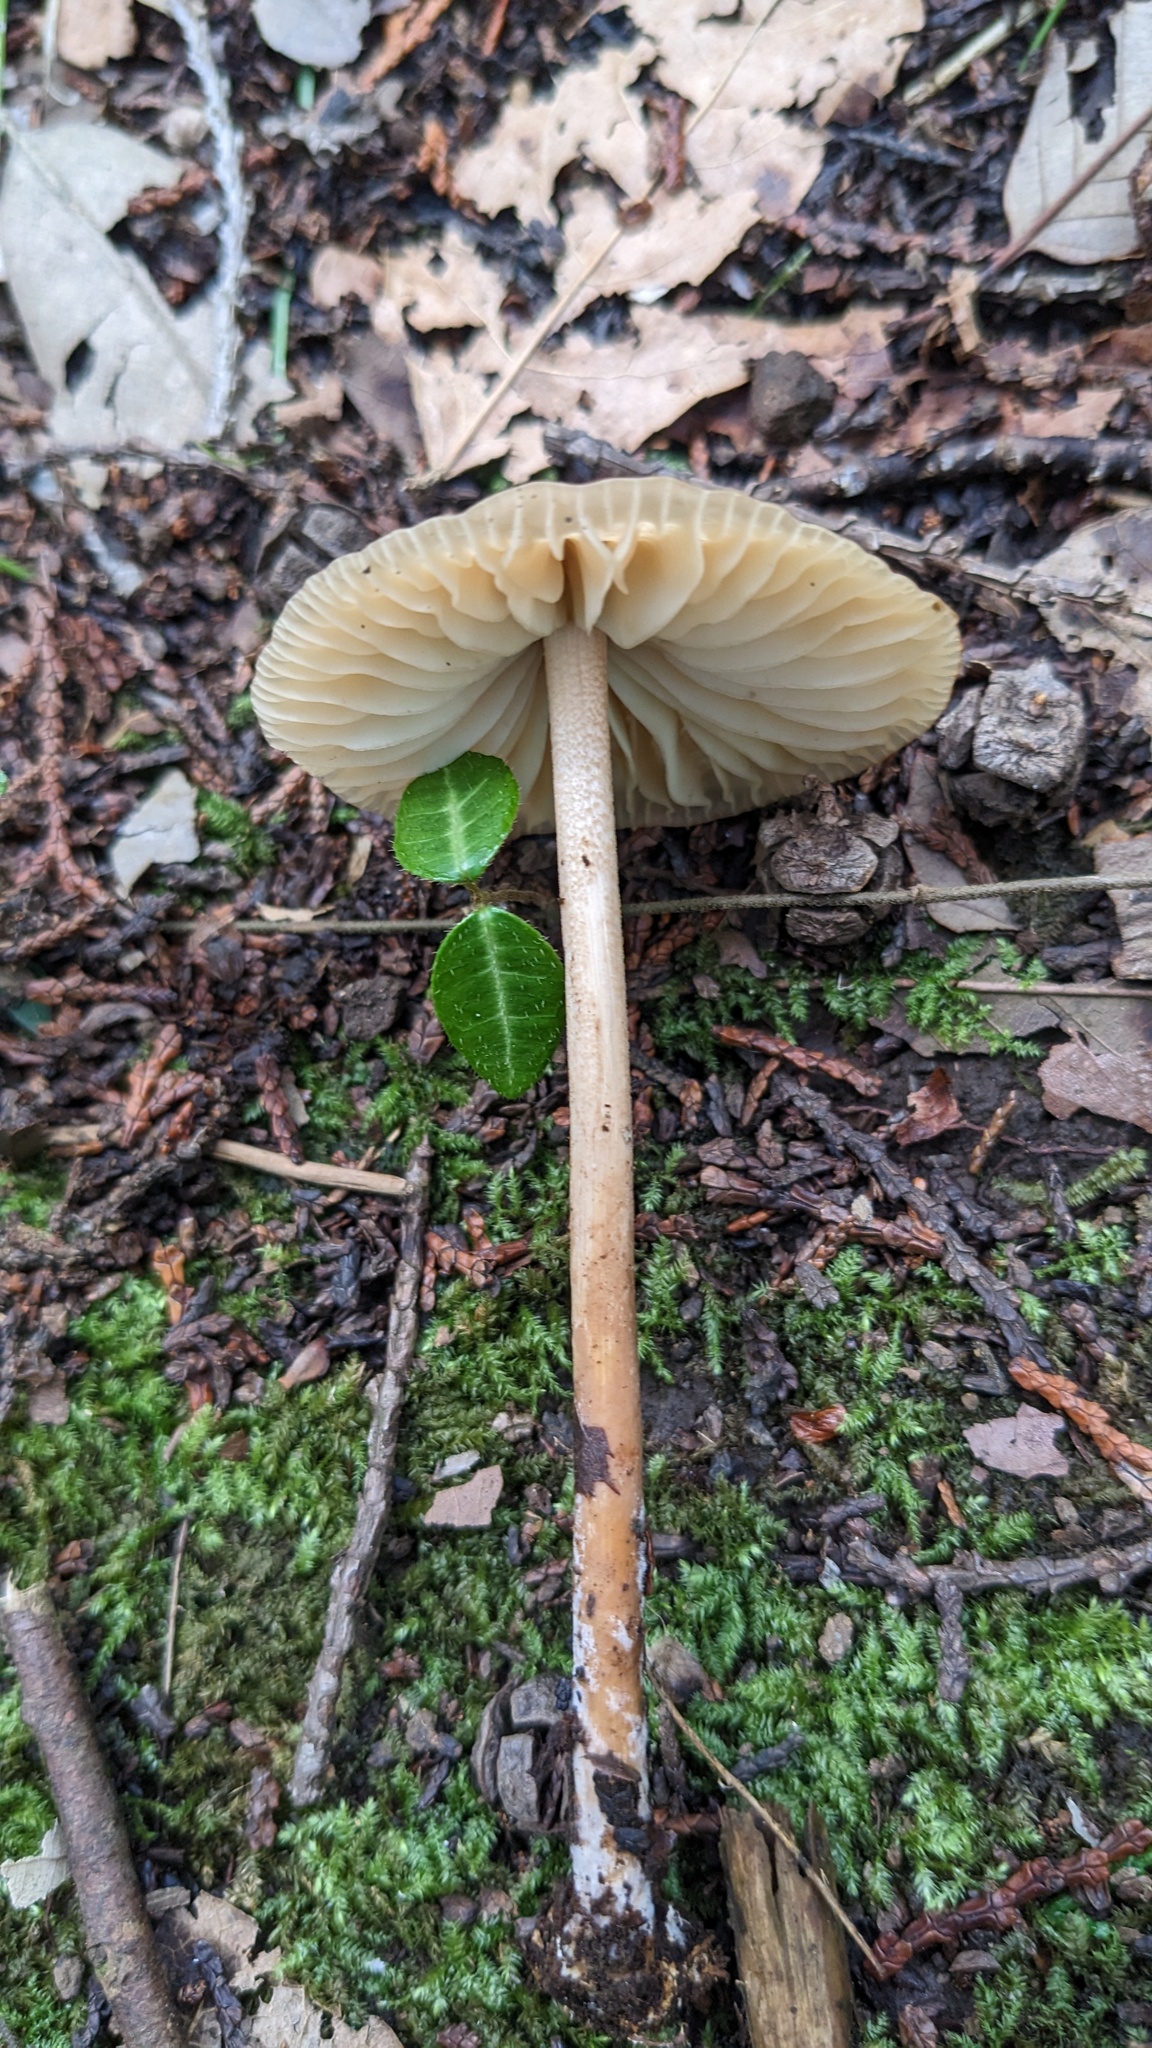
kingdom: Fungi
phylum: Basidiomycota
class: Agaricomycetes
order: Agaricales
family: Marasmiaceae
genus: Marasmius
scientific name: Marasmius maximus
